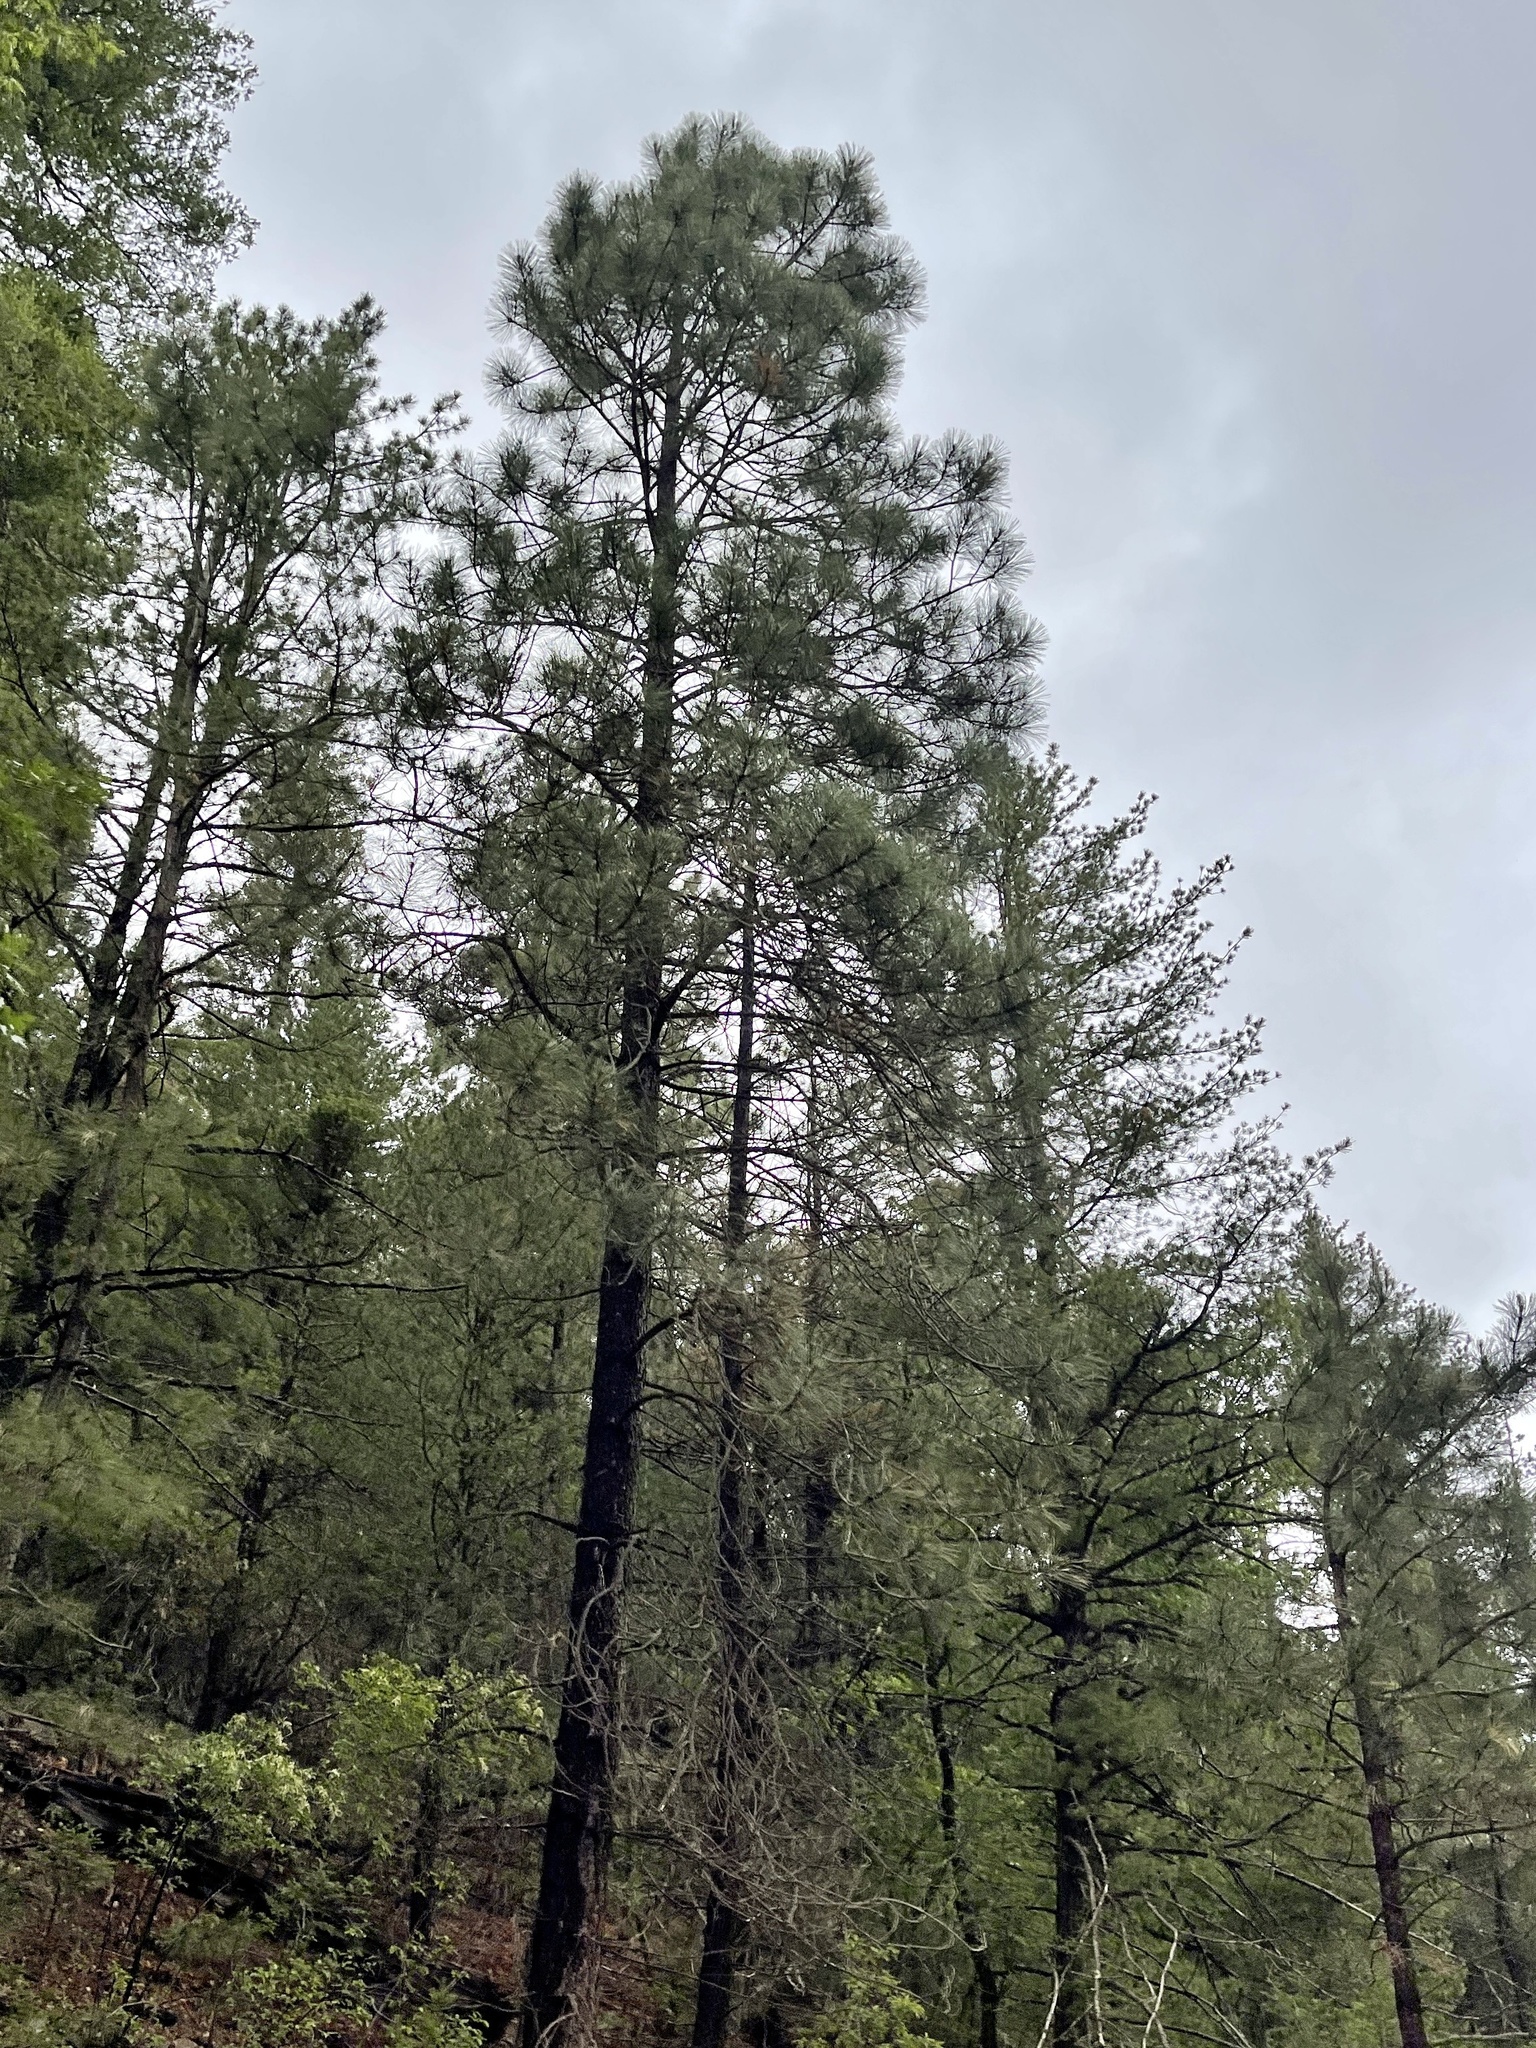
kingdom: Plantae
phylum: Tracheophyta
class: Pinopsida
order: Pinales
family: Pinaceae
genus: Pinus
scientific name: Pinus ponderosa
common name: Western yellow-pine
